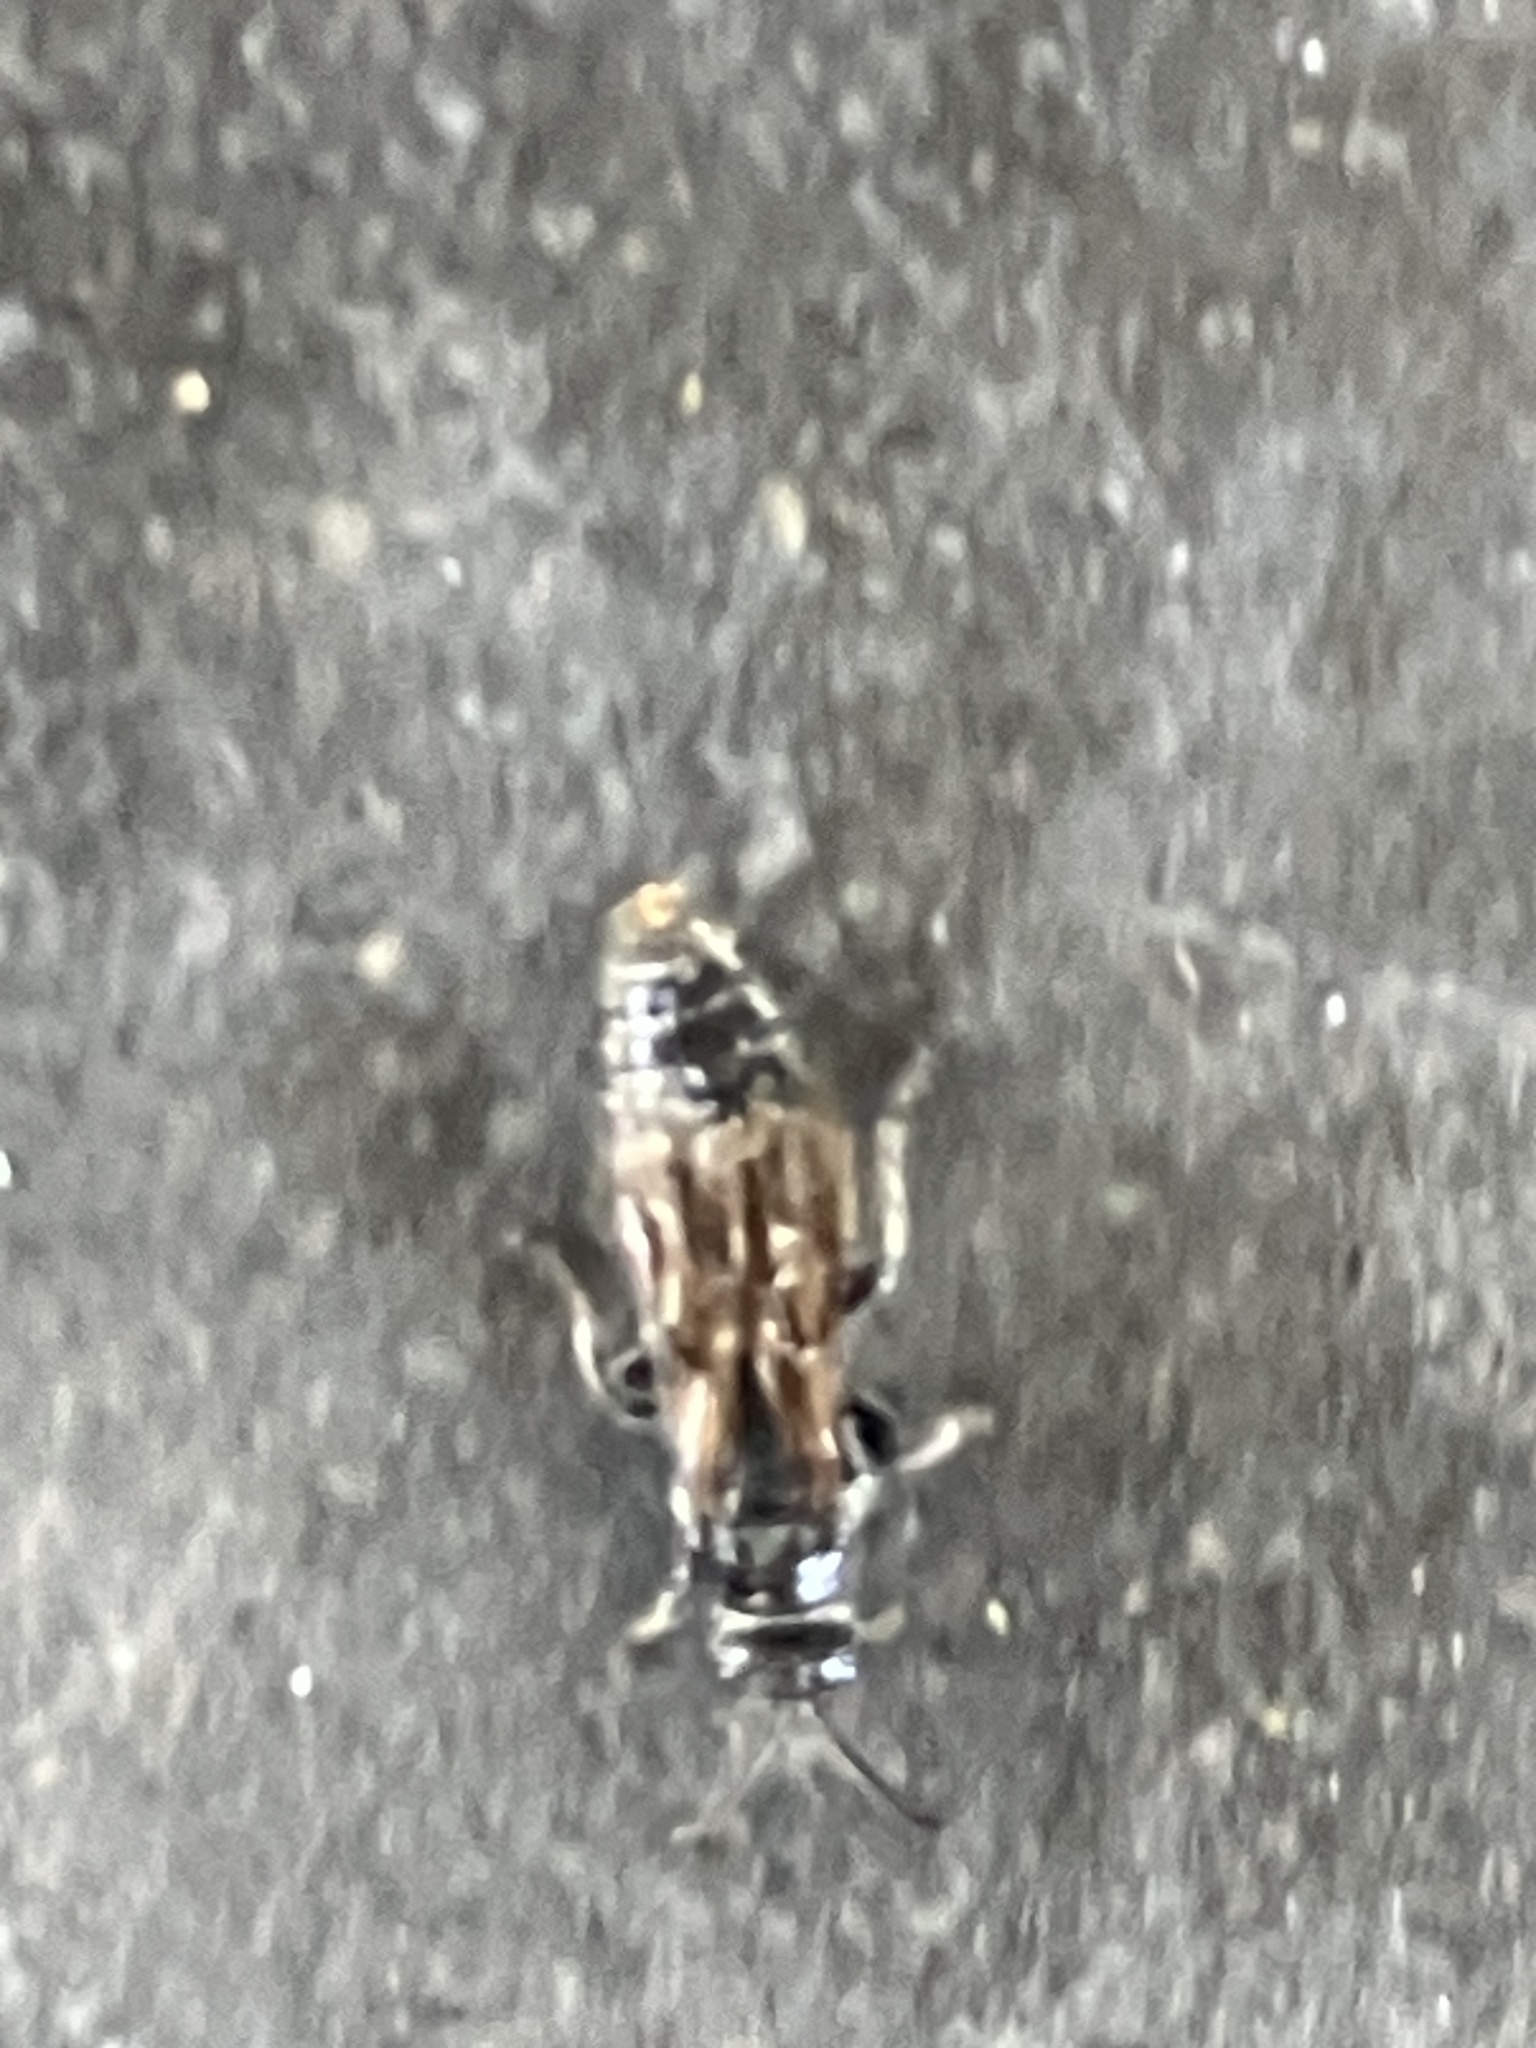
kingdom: Animalia
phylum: Arthropoda
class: Insecta
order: Hymenoptera
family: Tiphiidae
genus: Tiphia
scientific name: Tiphia
